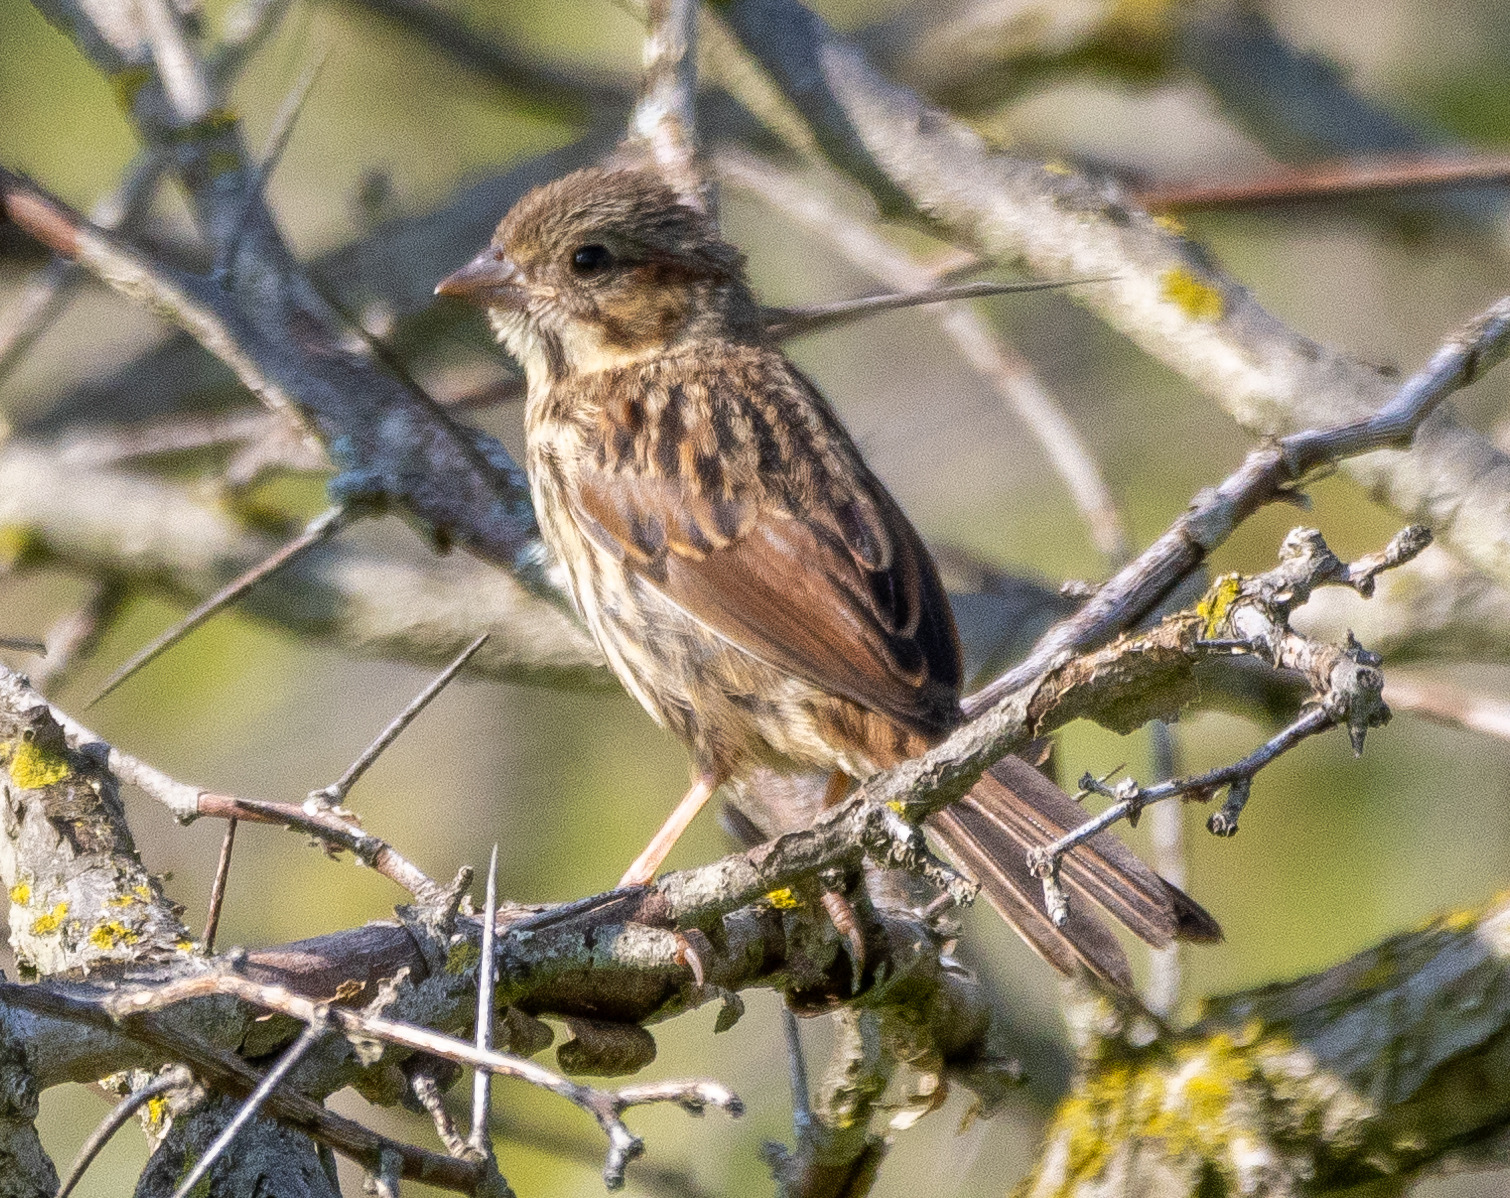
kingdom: Animalia
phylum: Chordata
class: Aves
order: Passeriformes
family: Passerellidae
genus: Melospiza
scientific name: Melospiza melodia
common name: Song sparrow
